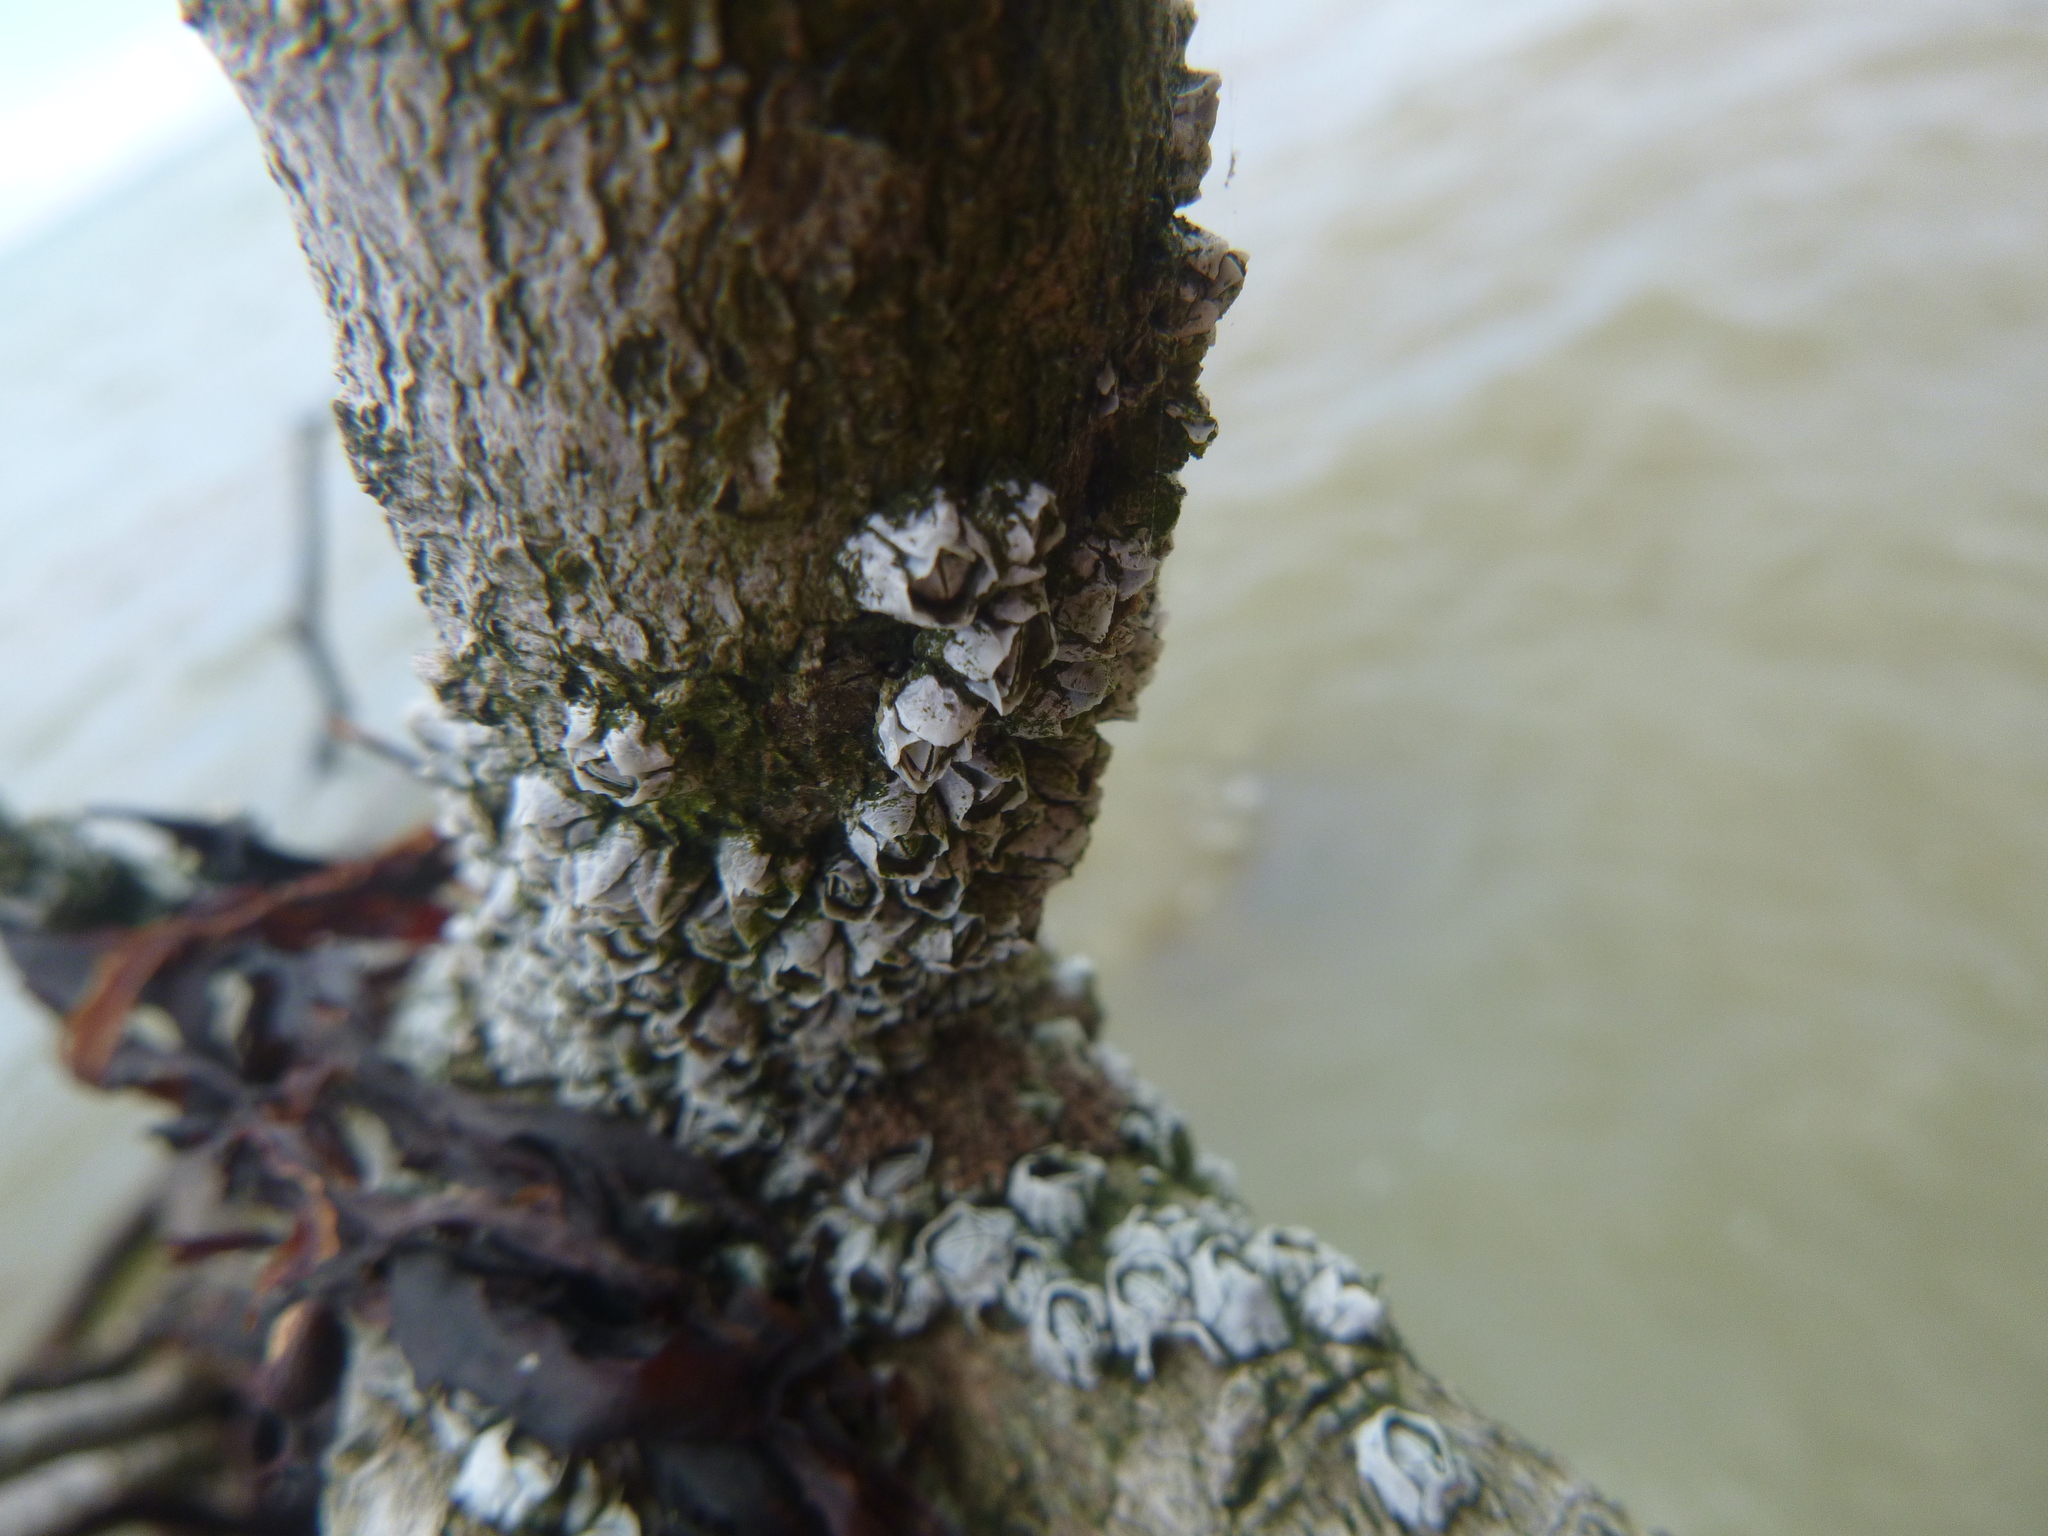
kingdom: Animalia
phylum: Arthropoda
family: Elminiidae
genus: Austrominius
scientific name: Austrominius modestus
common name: Australasian barnacle
